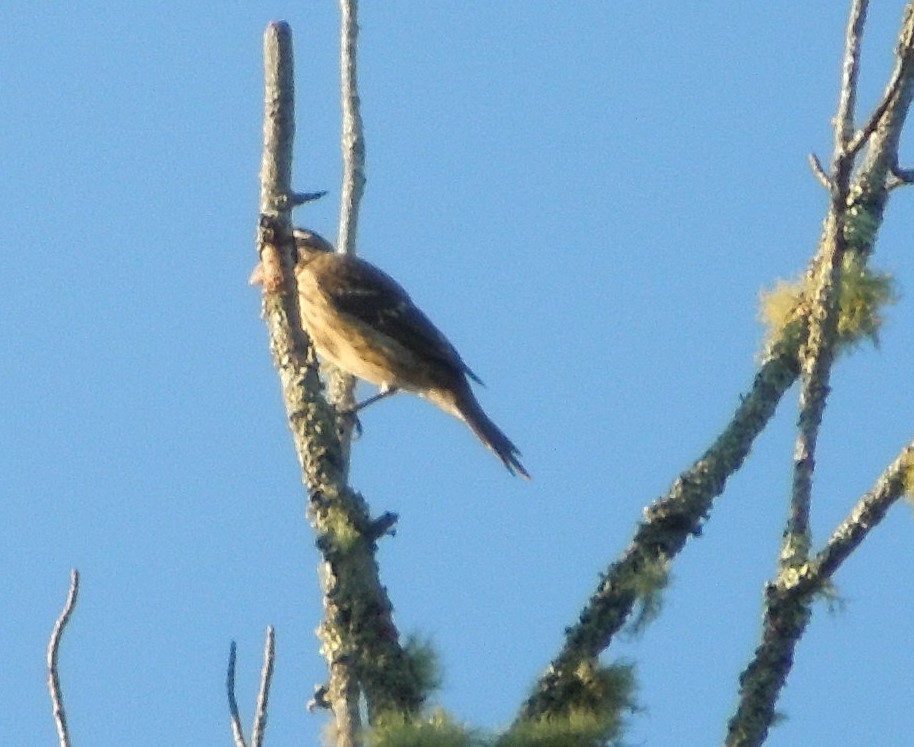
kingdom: Animalia
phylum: Chordata
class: Aves
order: Passeriformes
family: Cardinalidae
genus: Pheucticus
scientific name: Pheucticus ludovicianus
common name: Rose-breasted grosbeak
